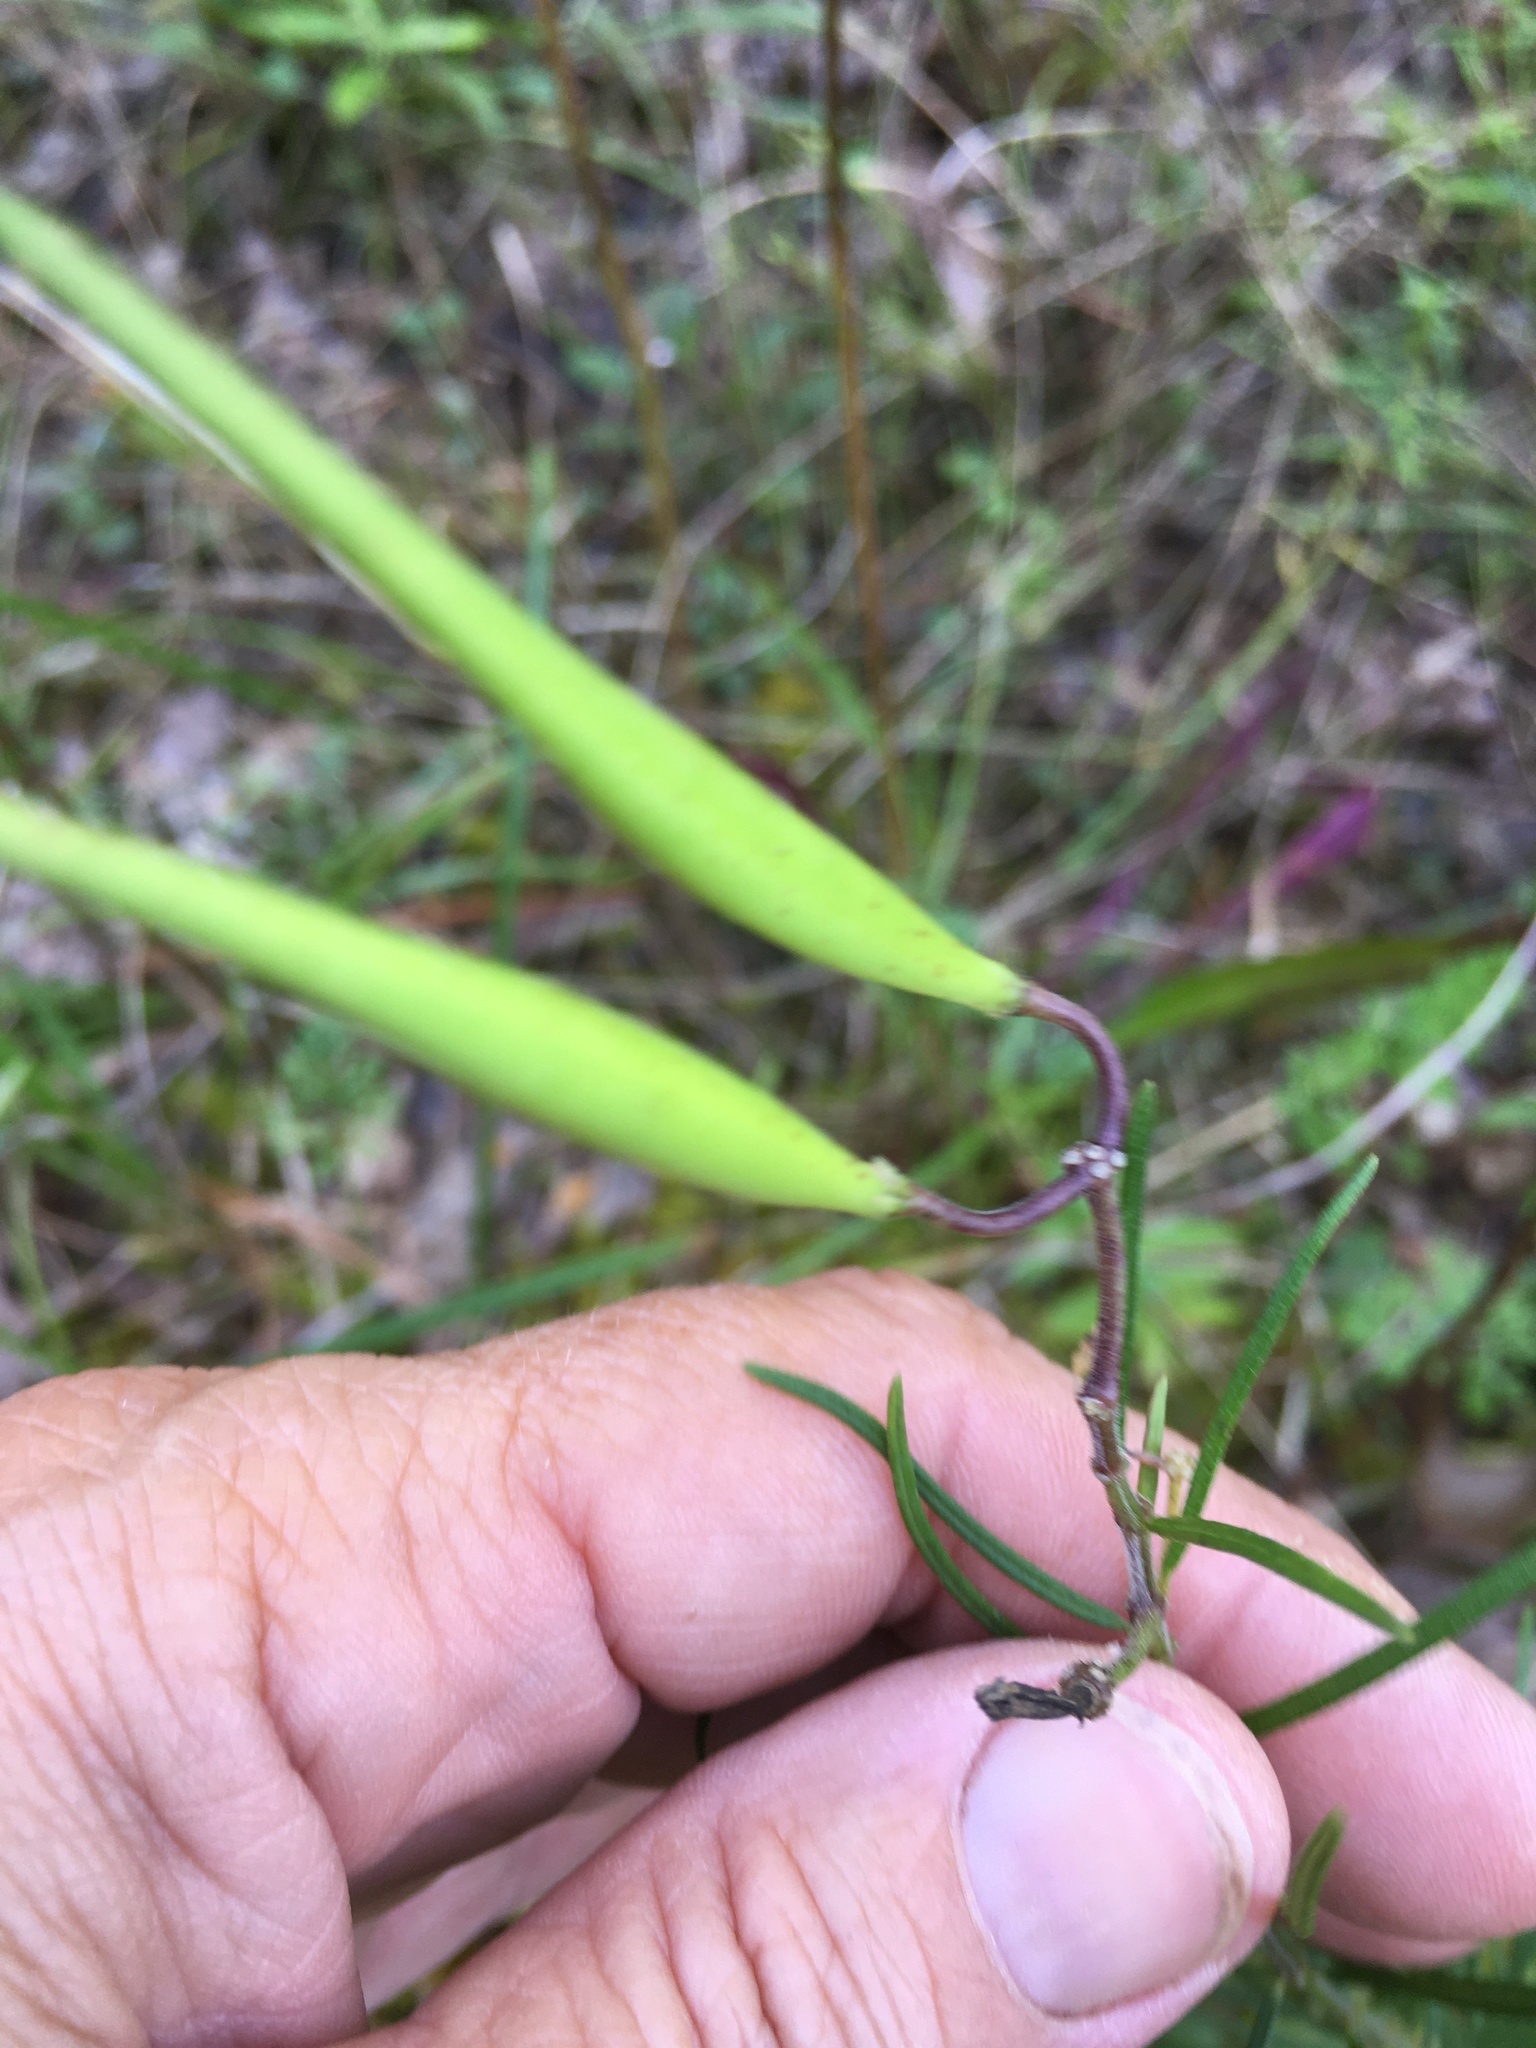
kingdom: Plantae
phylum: Tracheophyta
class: Magnoliopsida
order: Gentianales
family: Apocynaceae
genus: Asclepias
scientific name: Asclepias verticillata
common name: Eastern whorled milkweed
